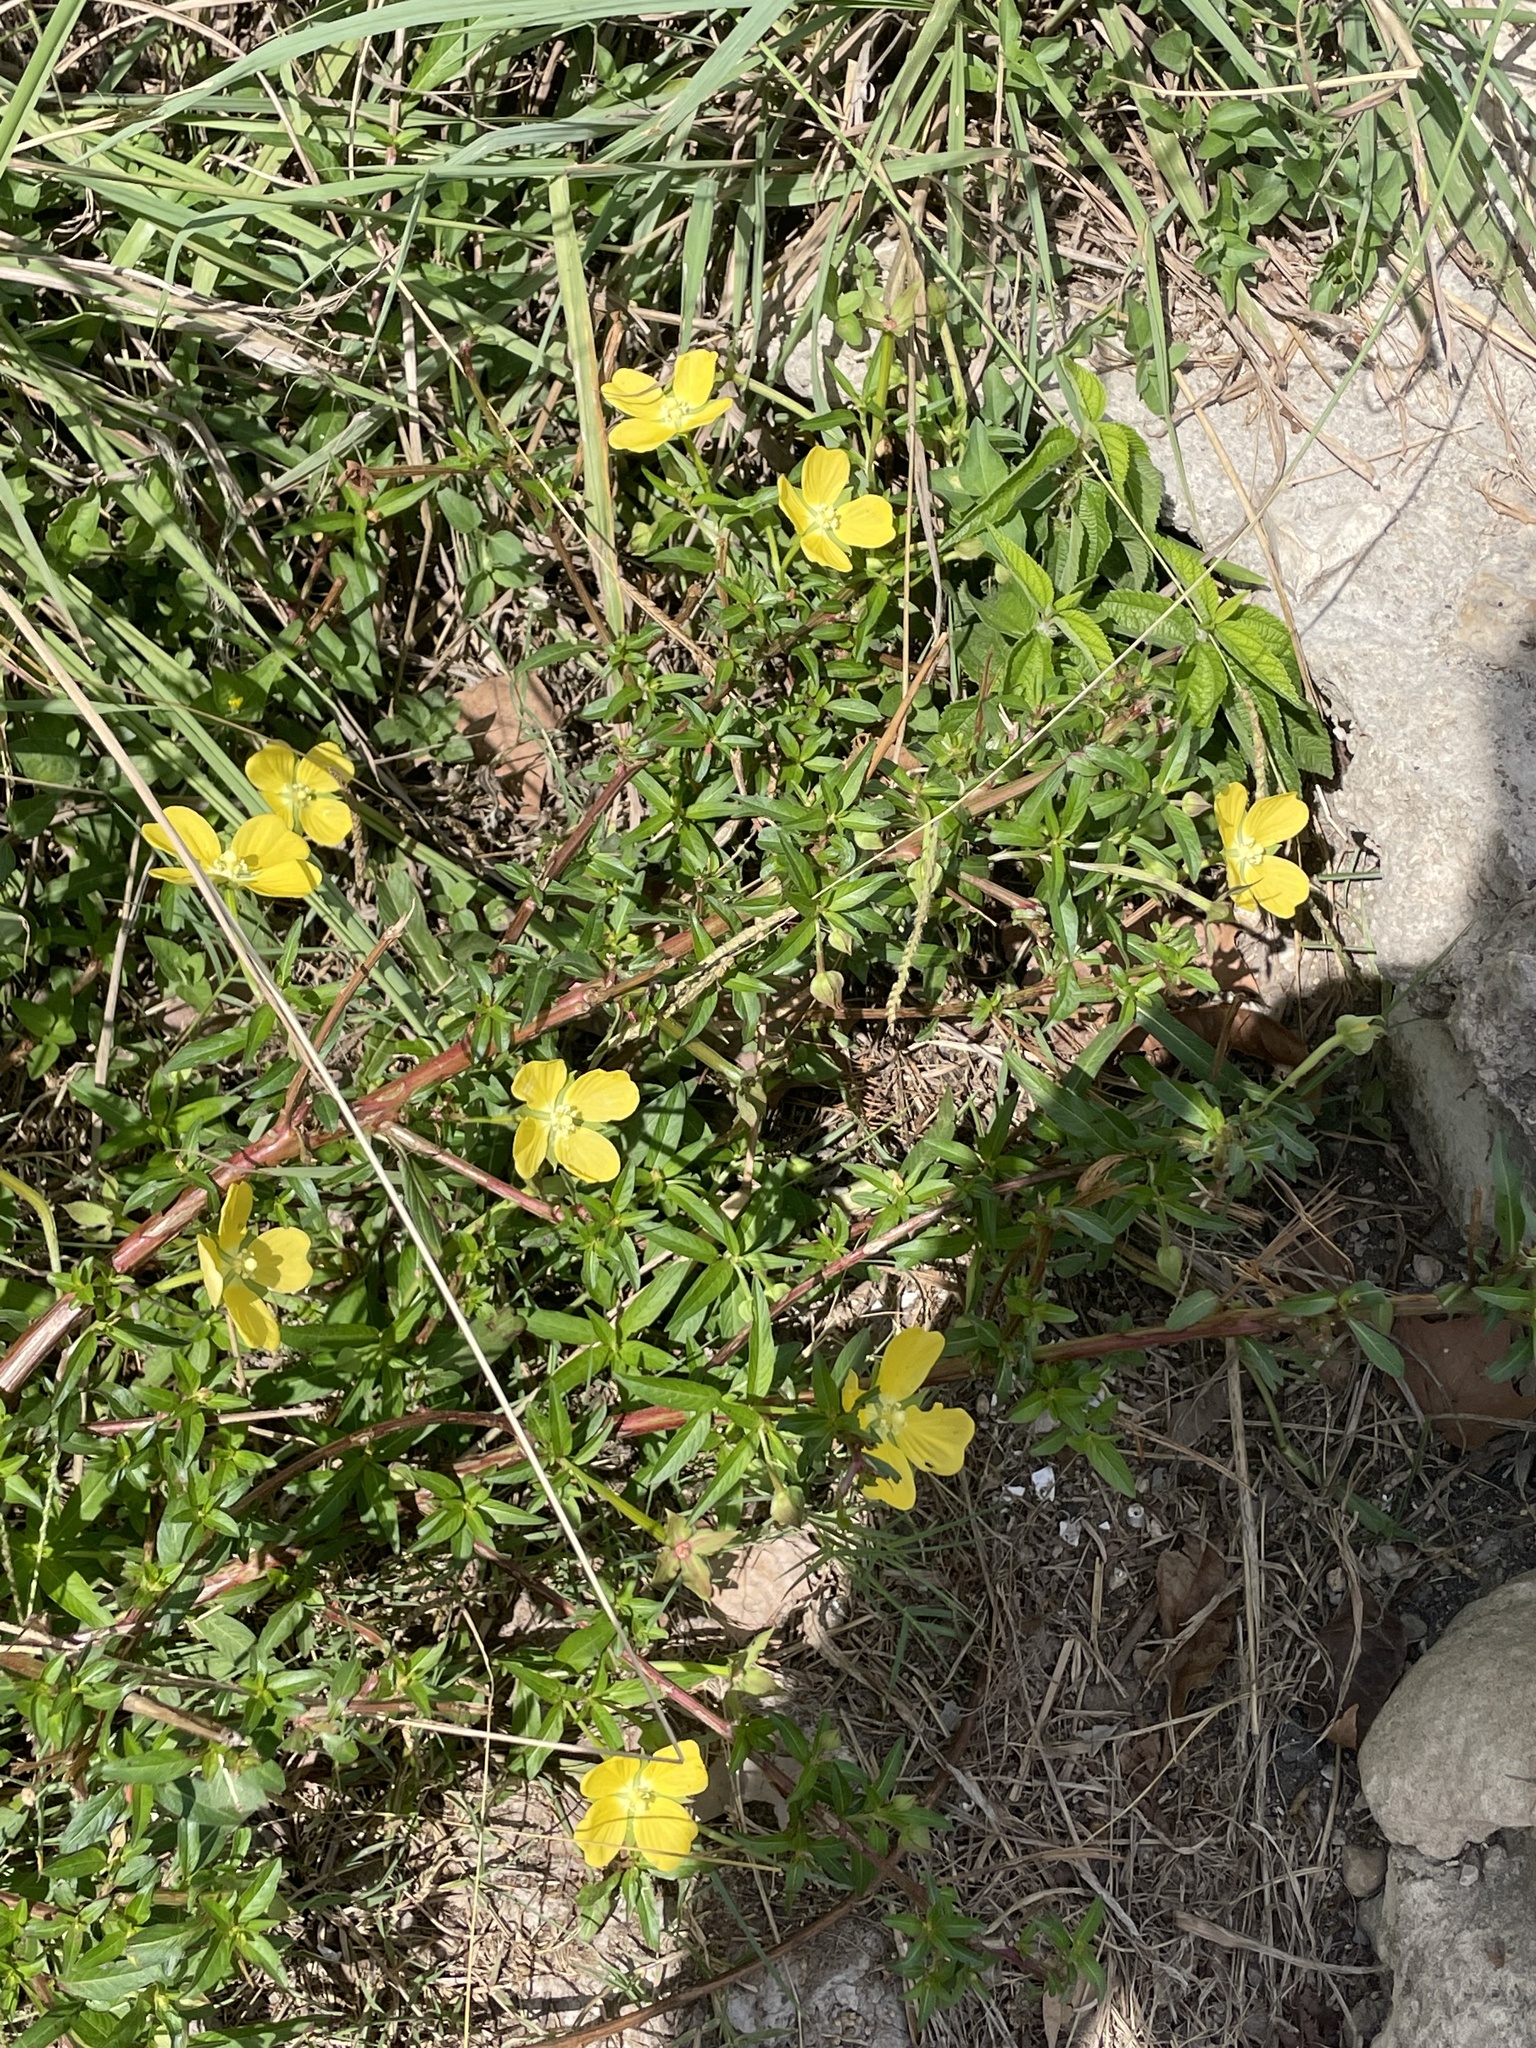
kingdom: Plantae
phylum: Tracheophyta
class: Magnoliopsida
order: Myrtales
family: Onagraceae
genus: Ludwigia
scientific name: Ludwigia octovalvis
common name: Water-primrose
